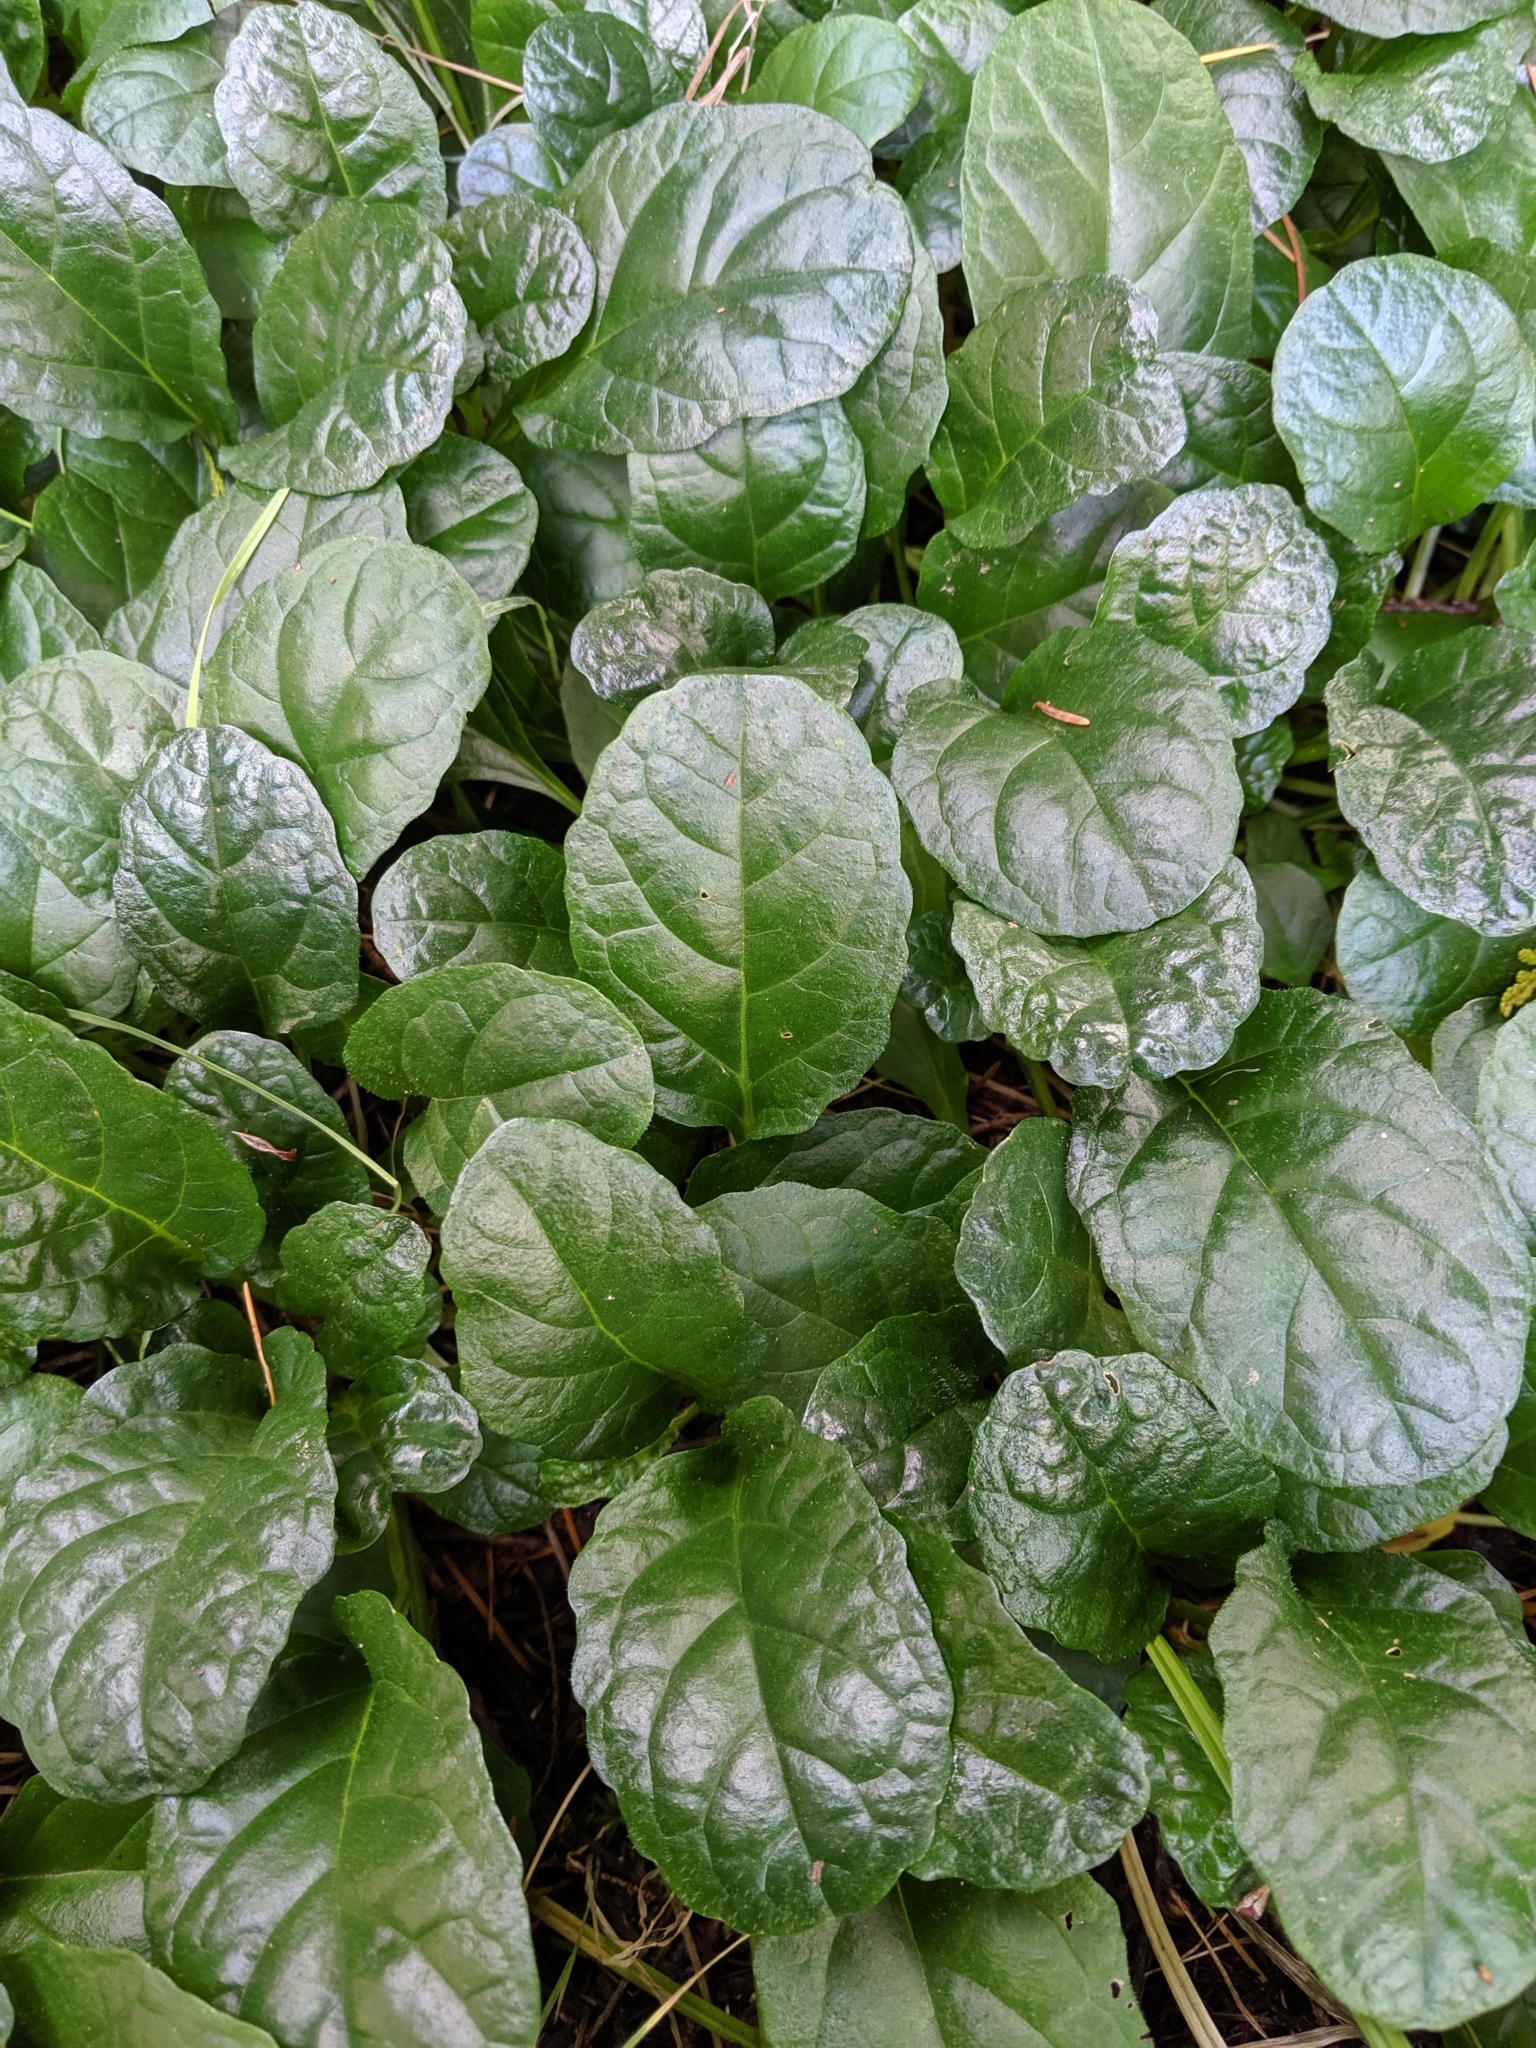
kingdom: Plantae
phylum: Tracheophyta
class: Magnoliopsida
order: Lamiales
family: Lamiaceae
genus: Ajuga
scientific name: Ajuga reptans
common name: Bugle
